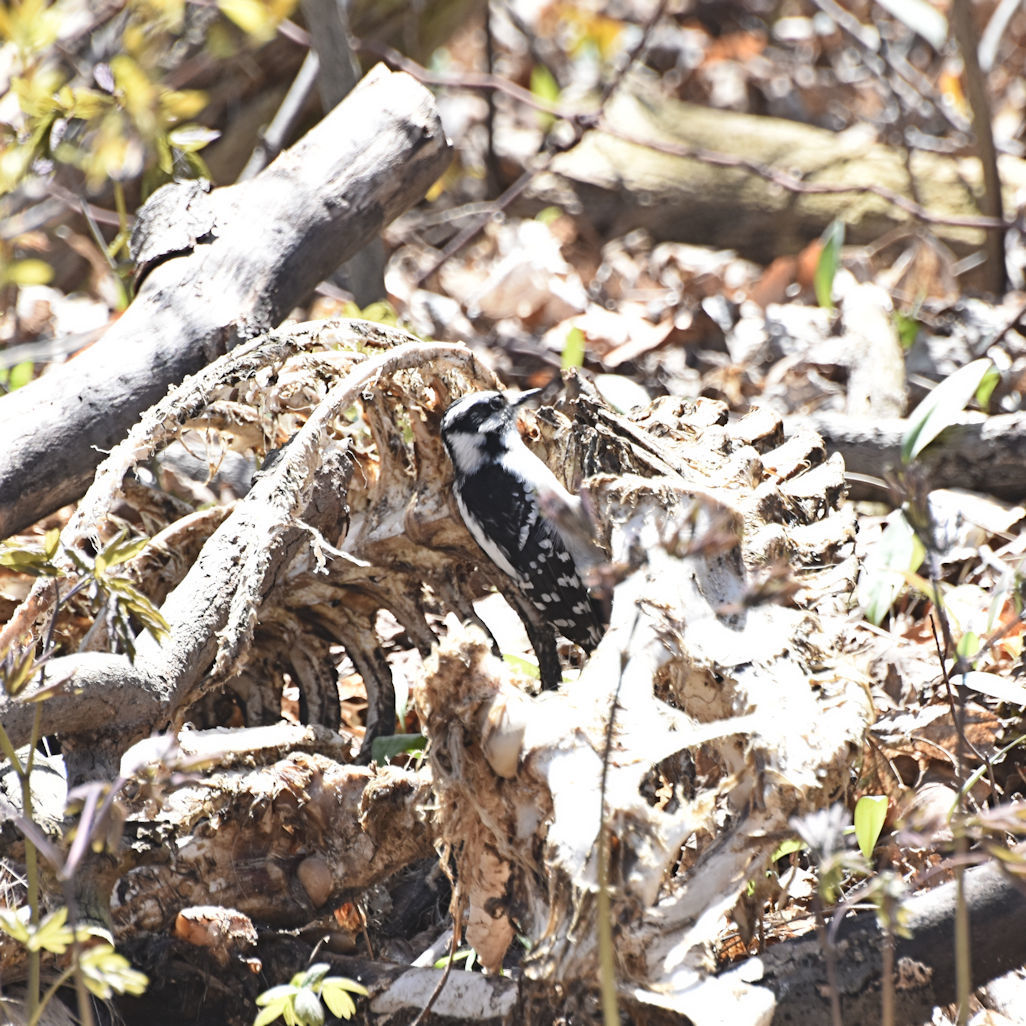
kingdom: Animalia
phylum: Chordata
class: Aves
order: Piciformes
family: Picidae
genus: Dryobates
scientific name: Dryobates pubescens
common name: Downy woodpecker
